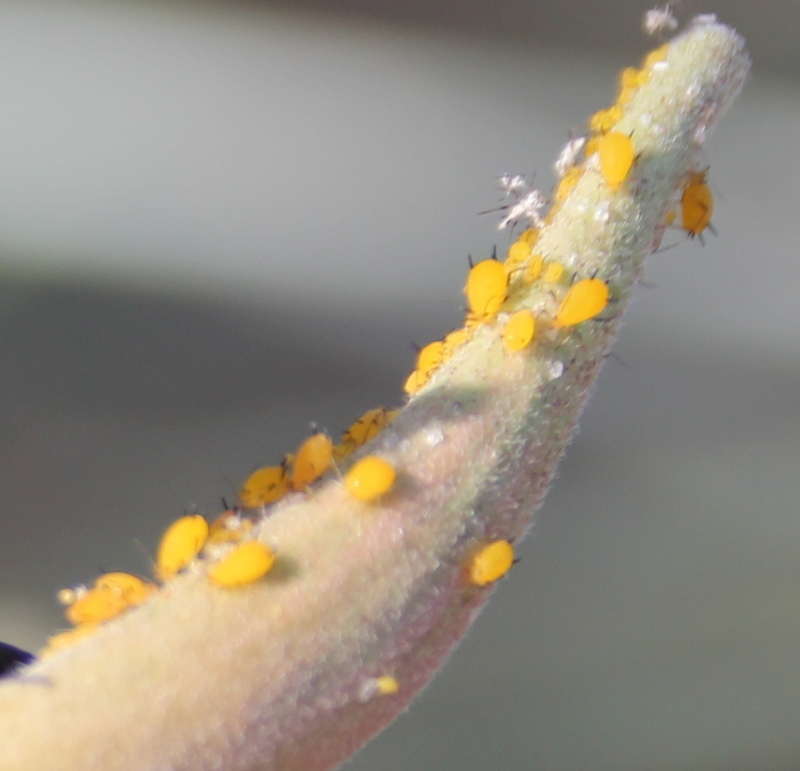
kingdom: Animalia
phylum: Arthropoda
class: Insecta
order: Hemiptera
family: Aphididae
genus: Aphis
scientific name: Aphis nerii
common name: Oleander aphid
